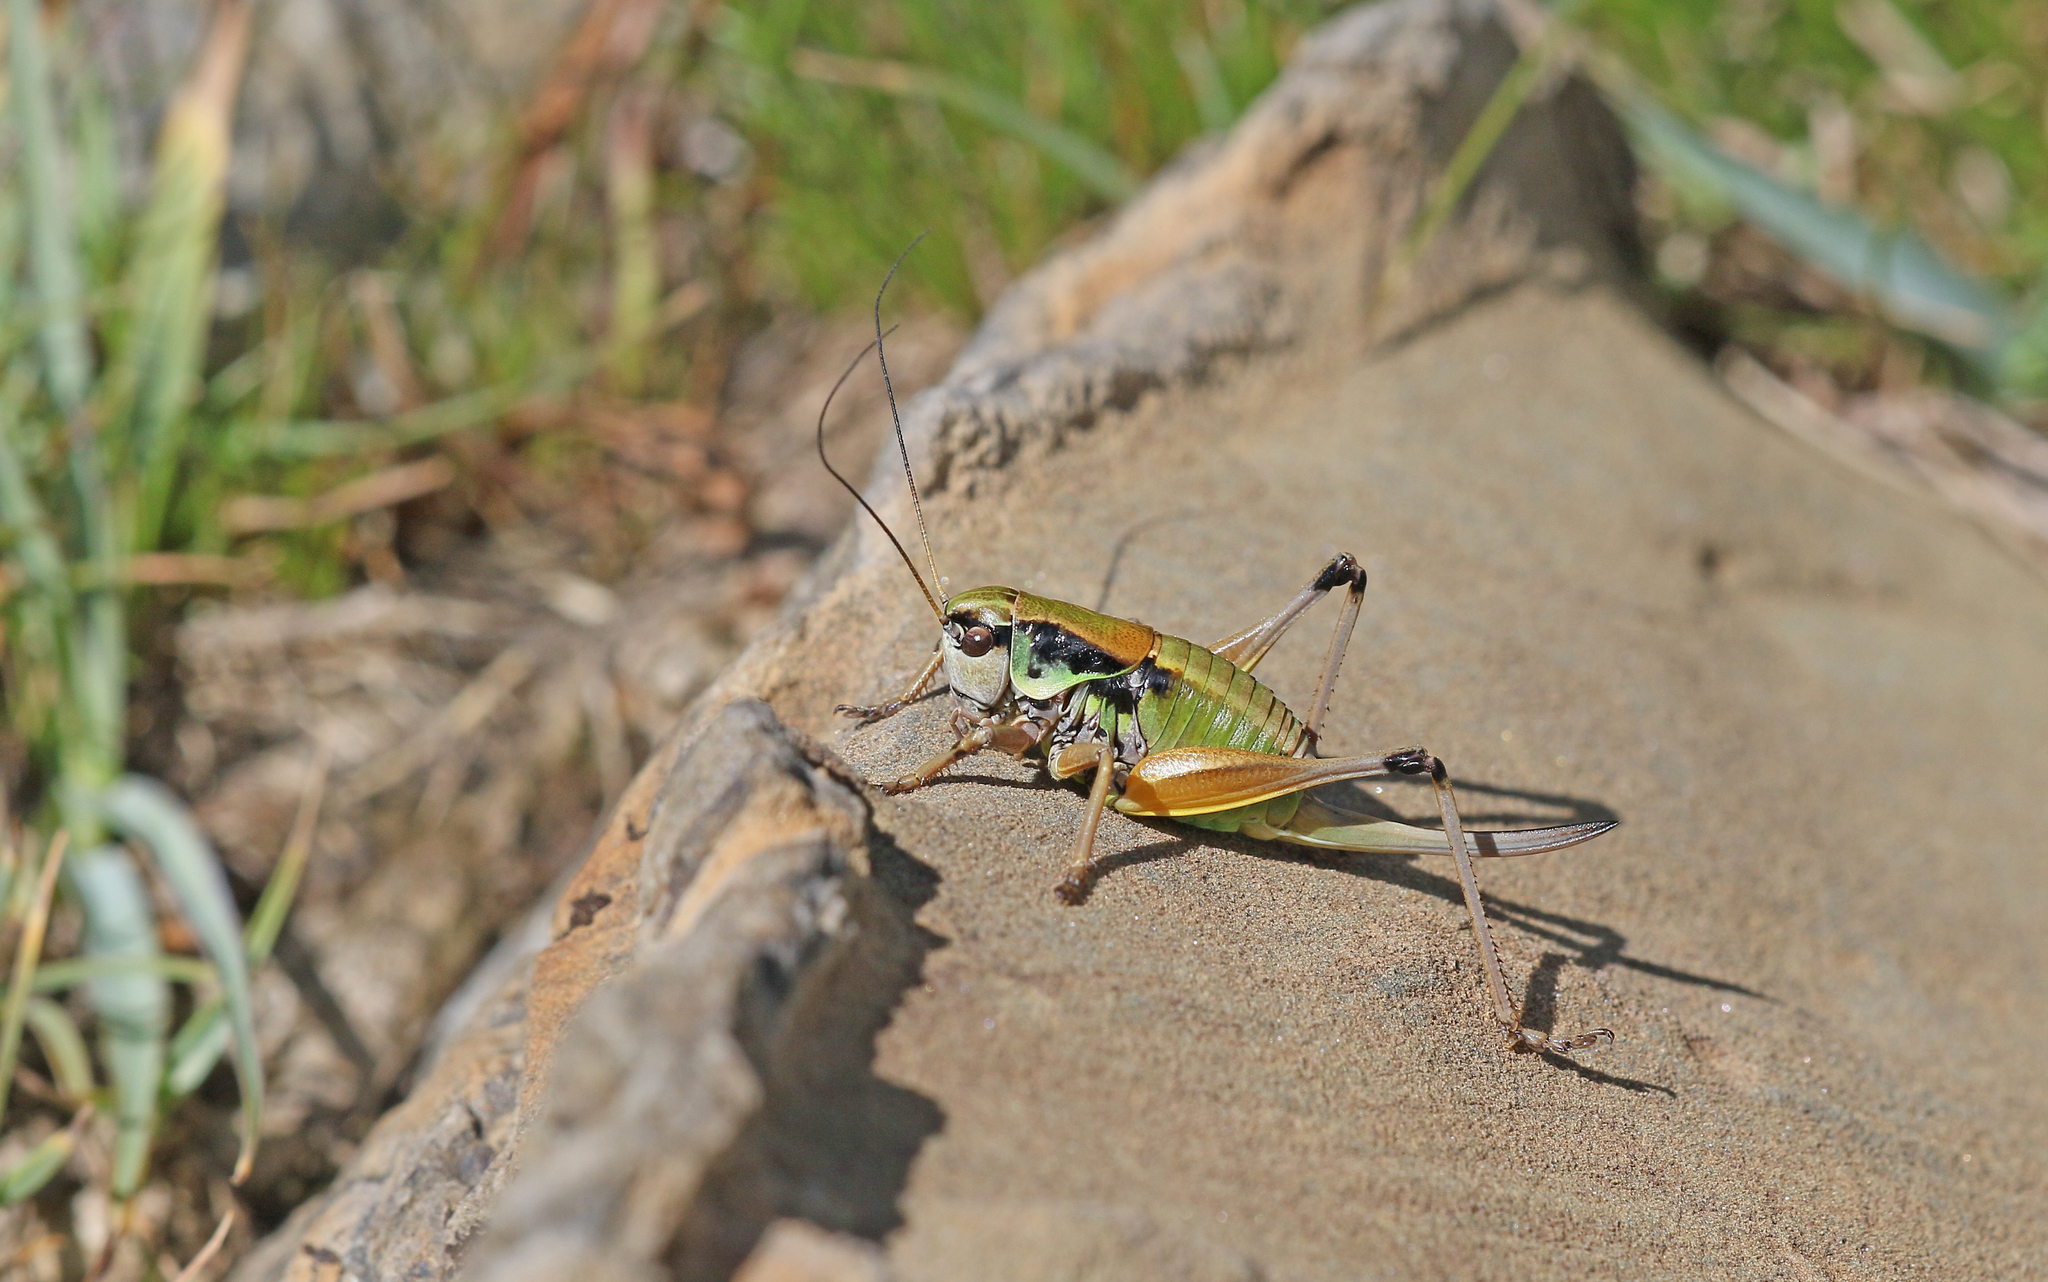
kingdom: Animalia
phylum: Arthropoda
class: Insecta
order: Orthoptera
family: Tettigoniidae
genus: Anonconotus
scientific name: Anonconotus occidentalis
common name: Western alpine bush-cricket
